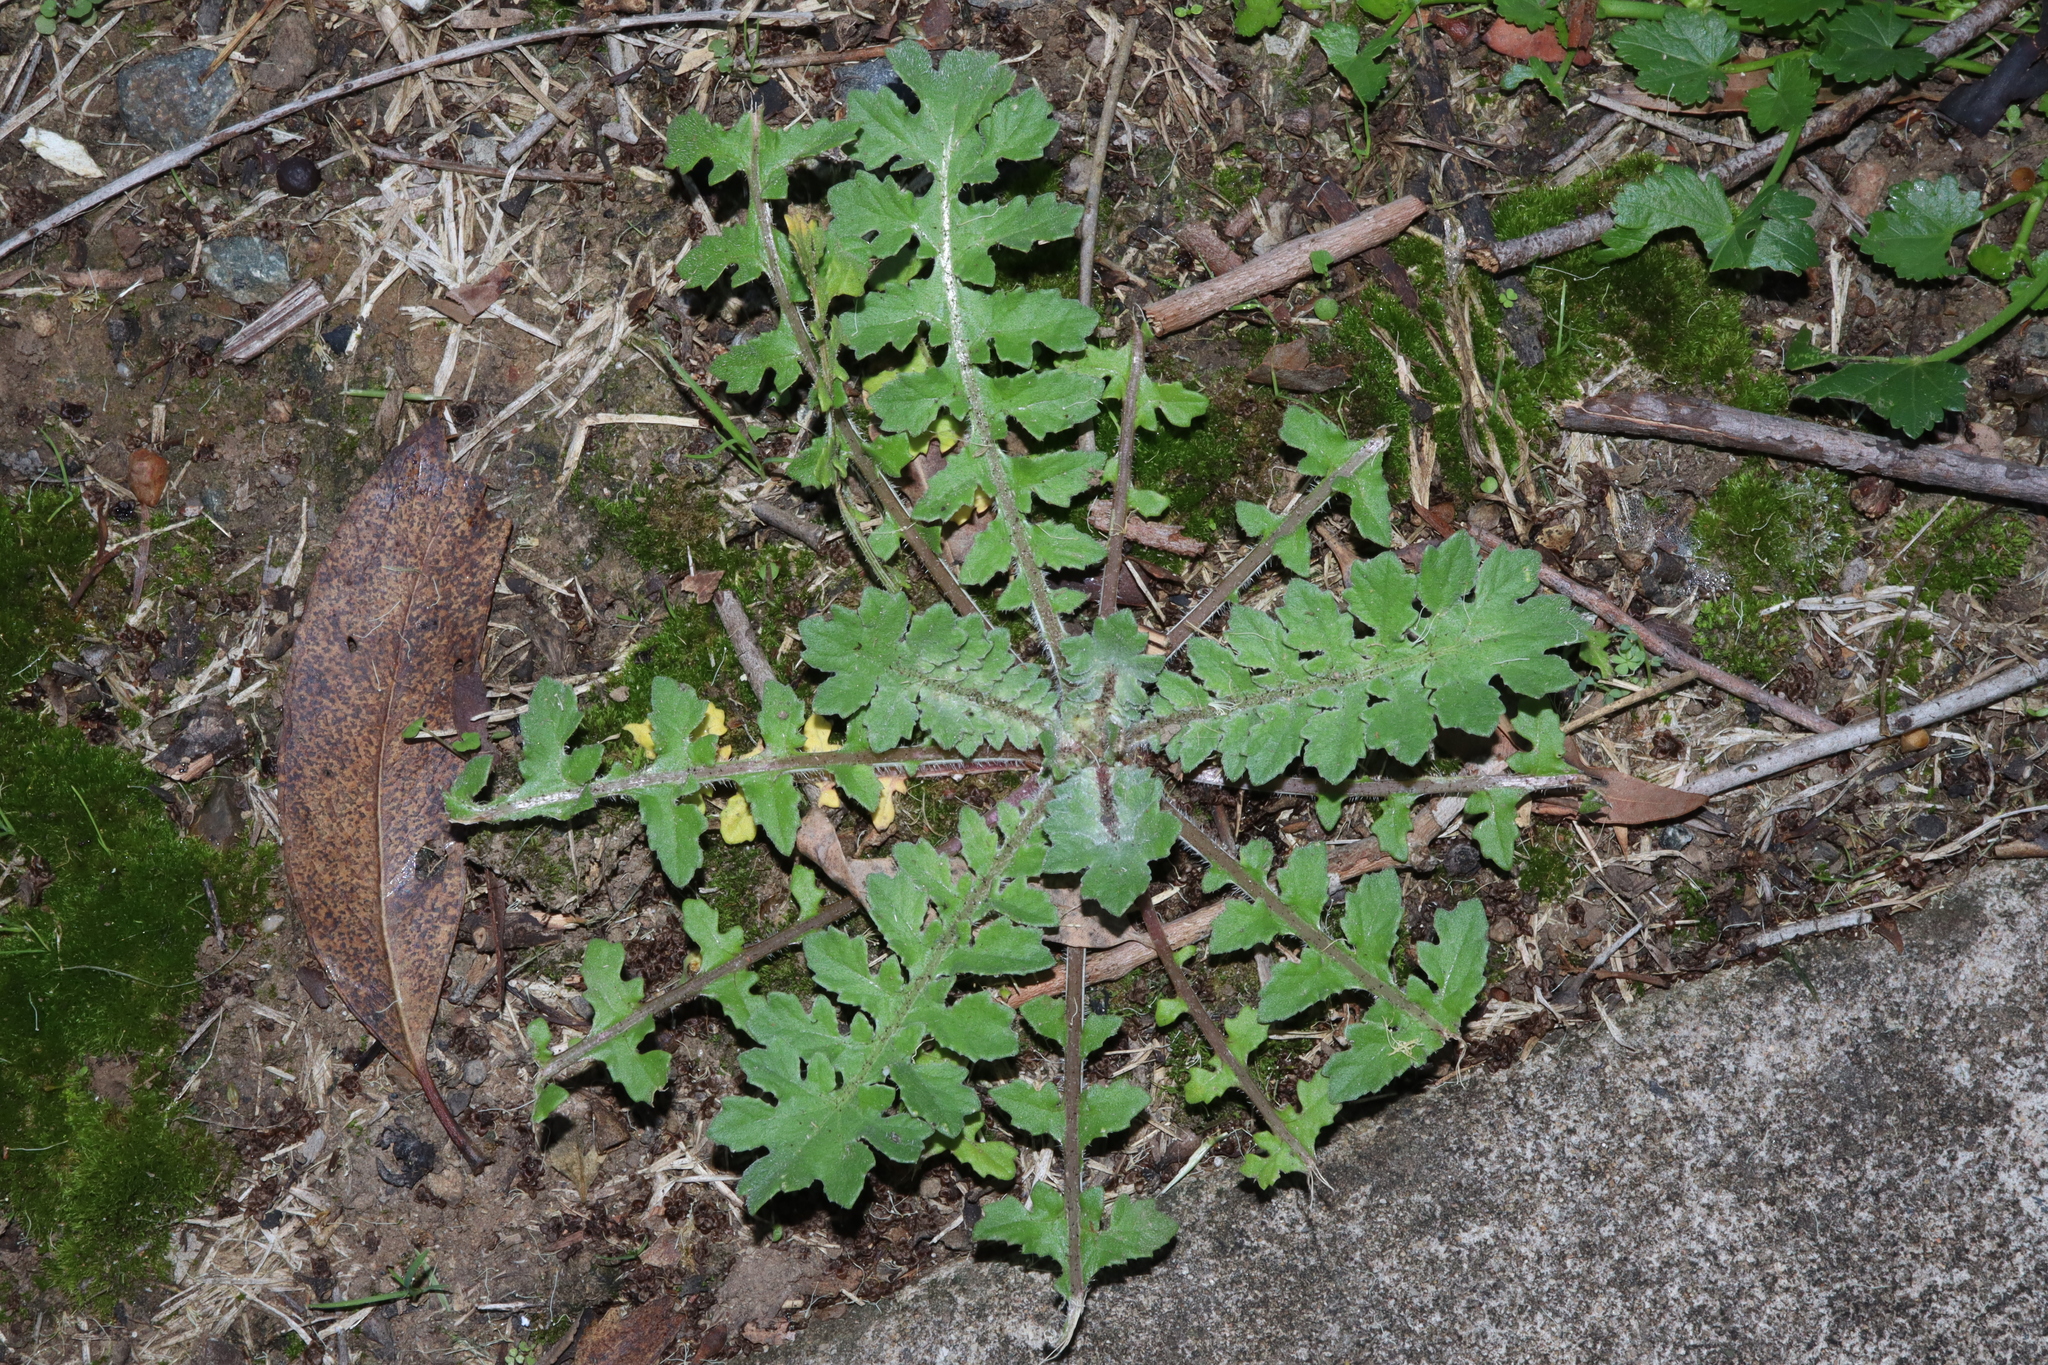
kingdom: Plantae
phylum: Tracheophyta
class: Magnoliopsida
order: Asterales
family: Asteraceae
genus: Arctotheca
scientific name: Arctotheca calendula
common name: Capeweed
